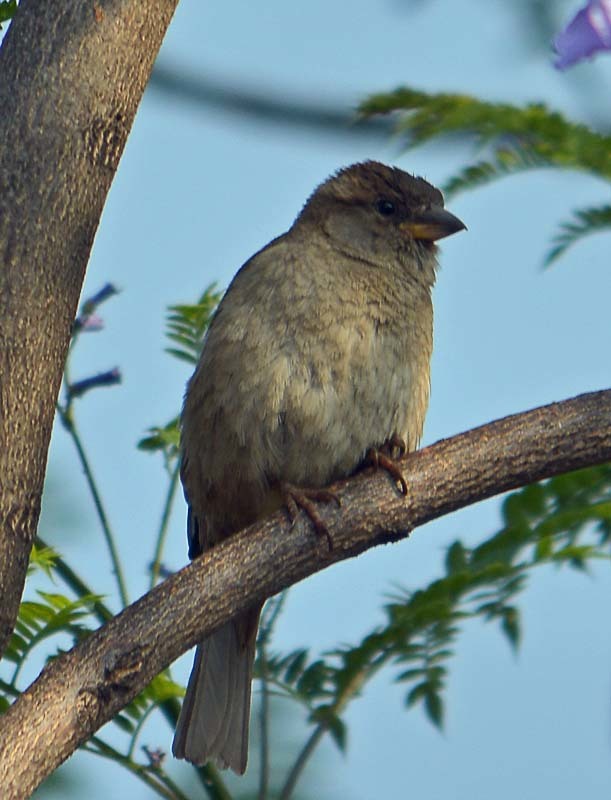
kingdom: Animalia
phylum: Chordata
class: Aves
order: Passeriformes
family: Passeridae
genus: Passer
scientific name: Passer domesticus
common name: House sparrow
